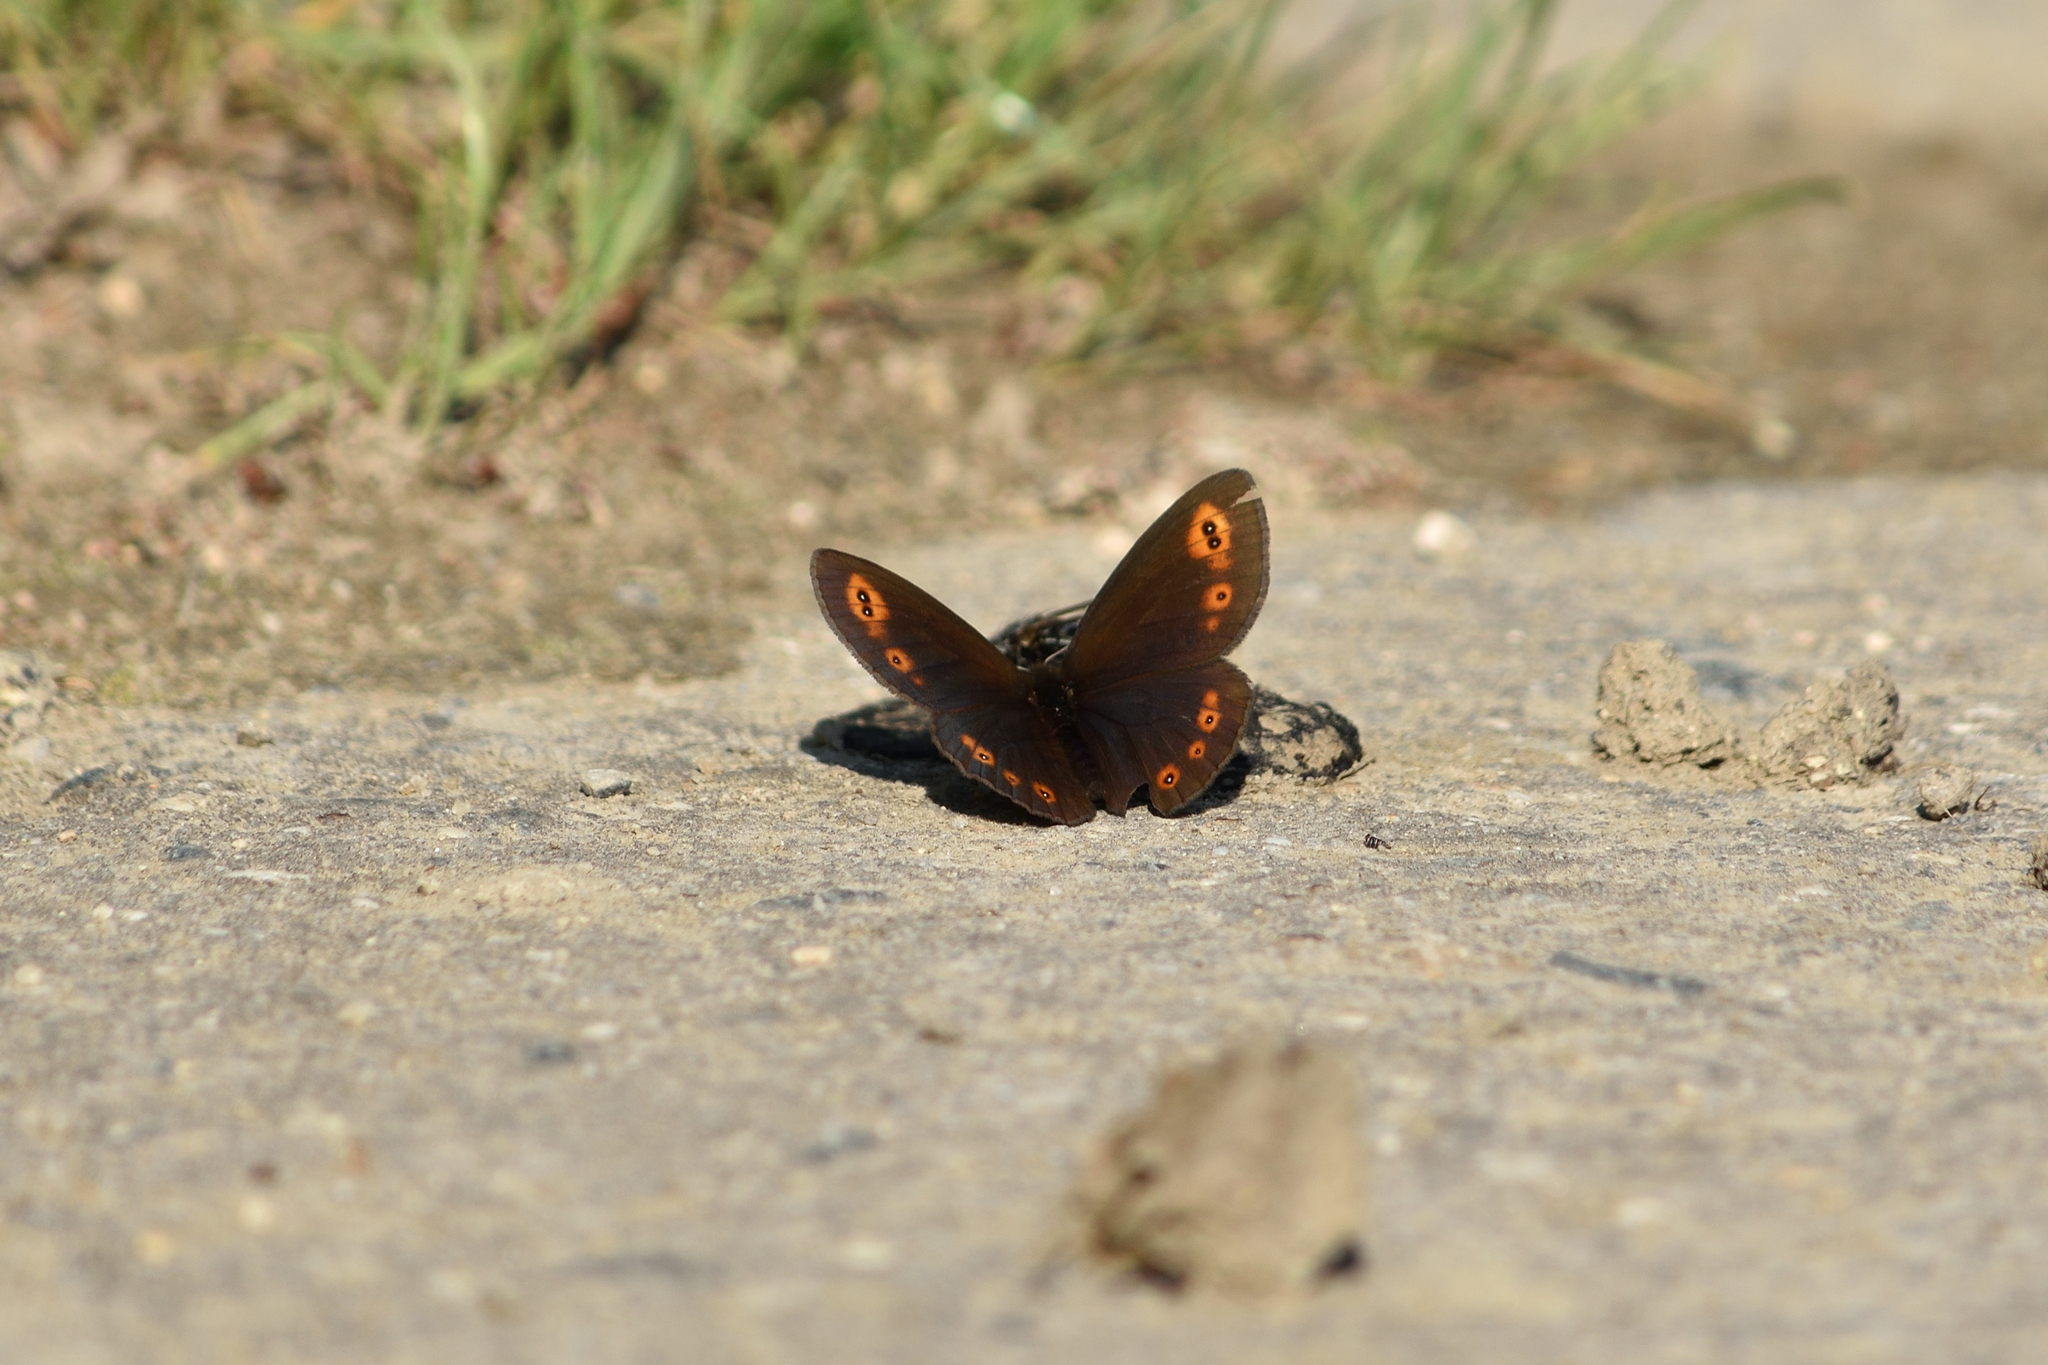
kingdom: Animalia
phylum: Arthropoda
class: Insecta
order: Lepidoptera
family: Nymphalidae
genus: Erebia
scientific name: Erebia medusa
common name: Woodland ringlet
